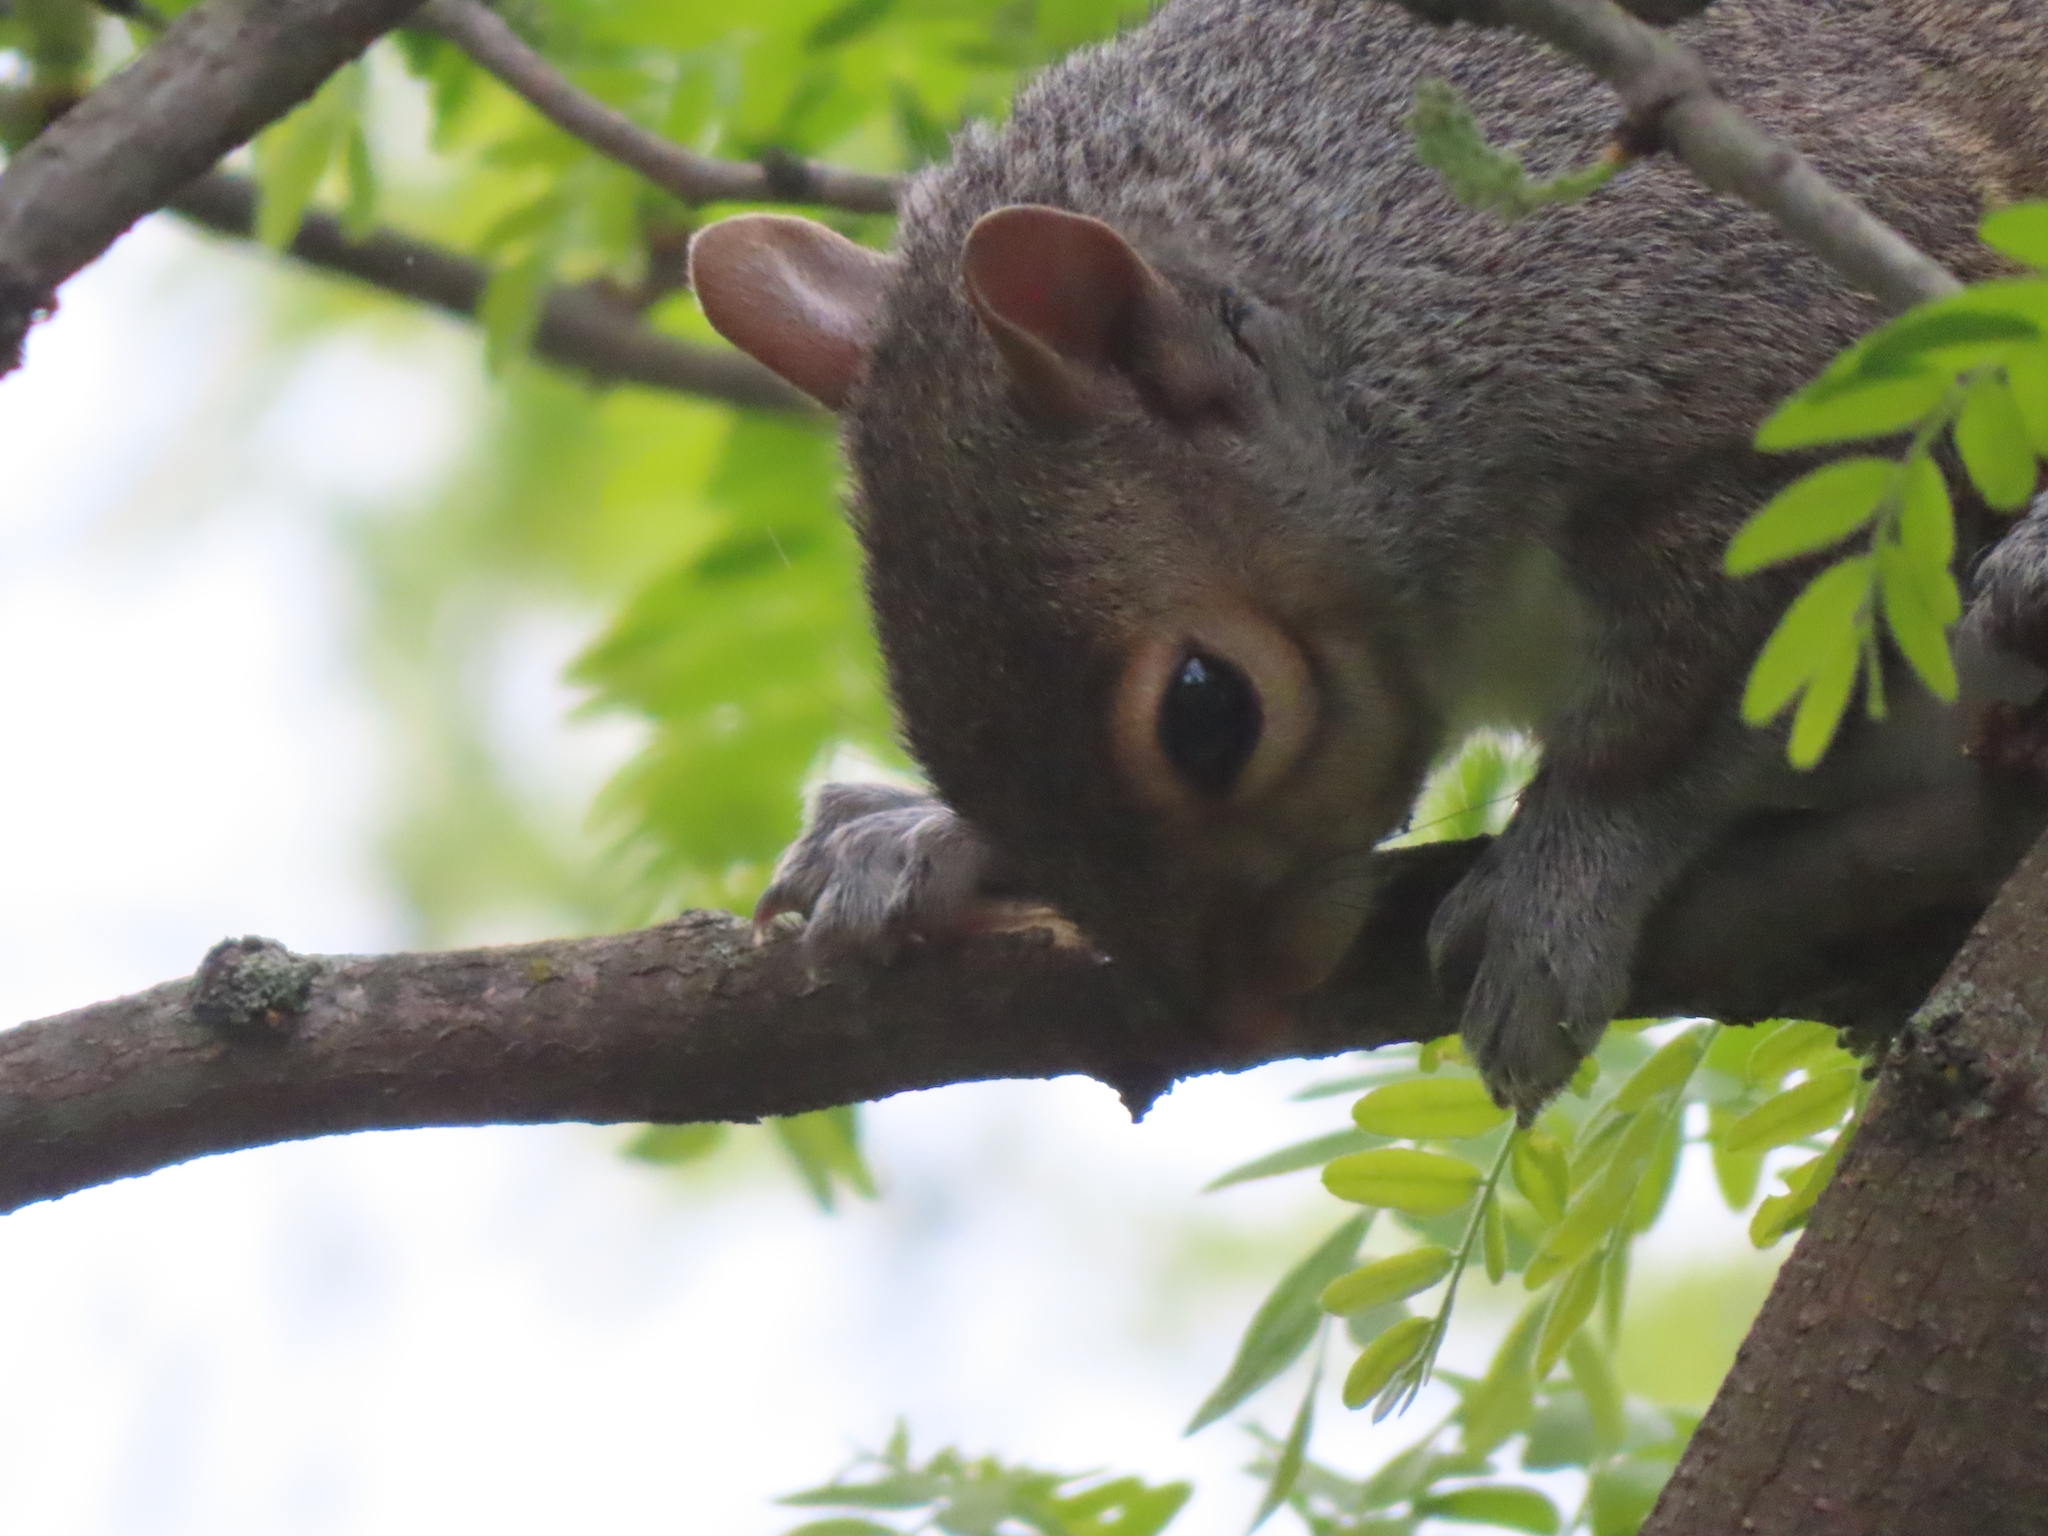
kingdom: Animalia
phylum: Chordata
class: Mammalia
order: Rodentia
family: Sciuridae
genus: Sciurus
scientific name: Sciurus carolinensis
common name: Eastern gray squirrel
